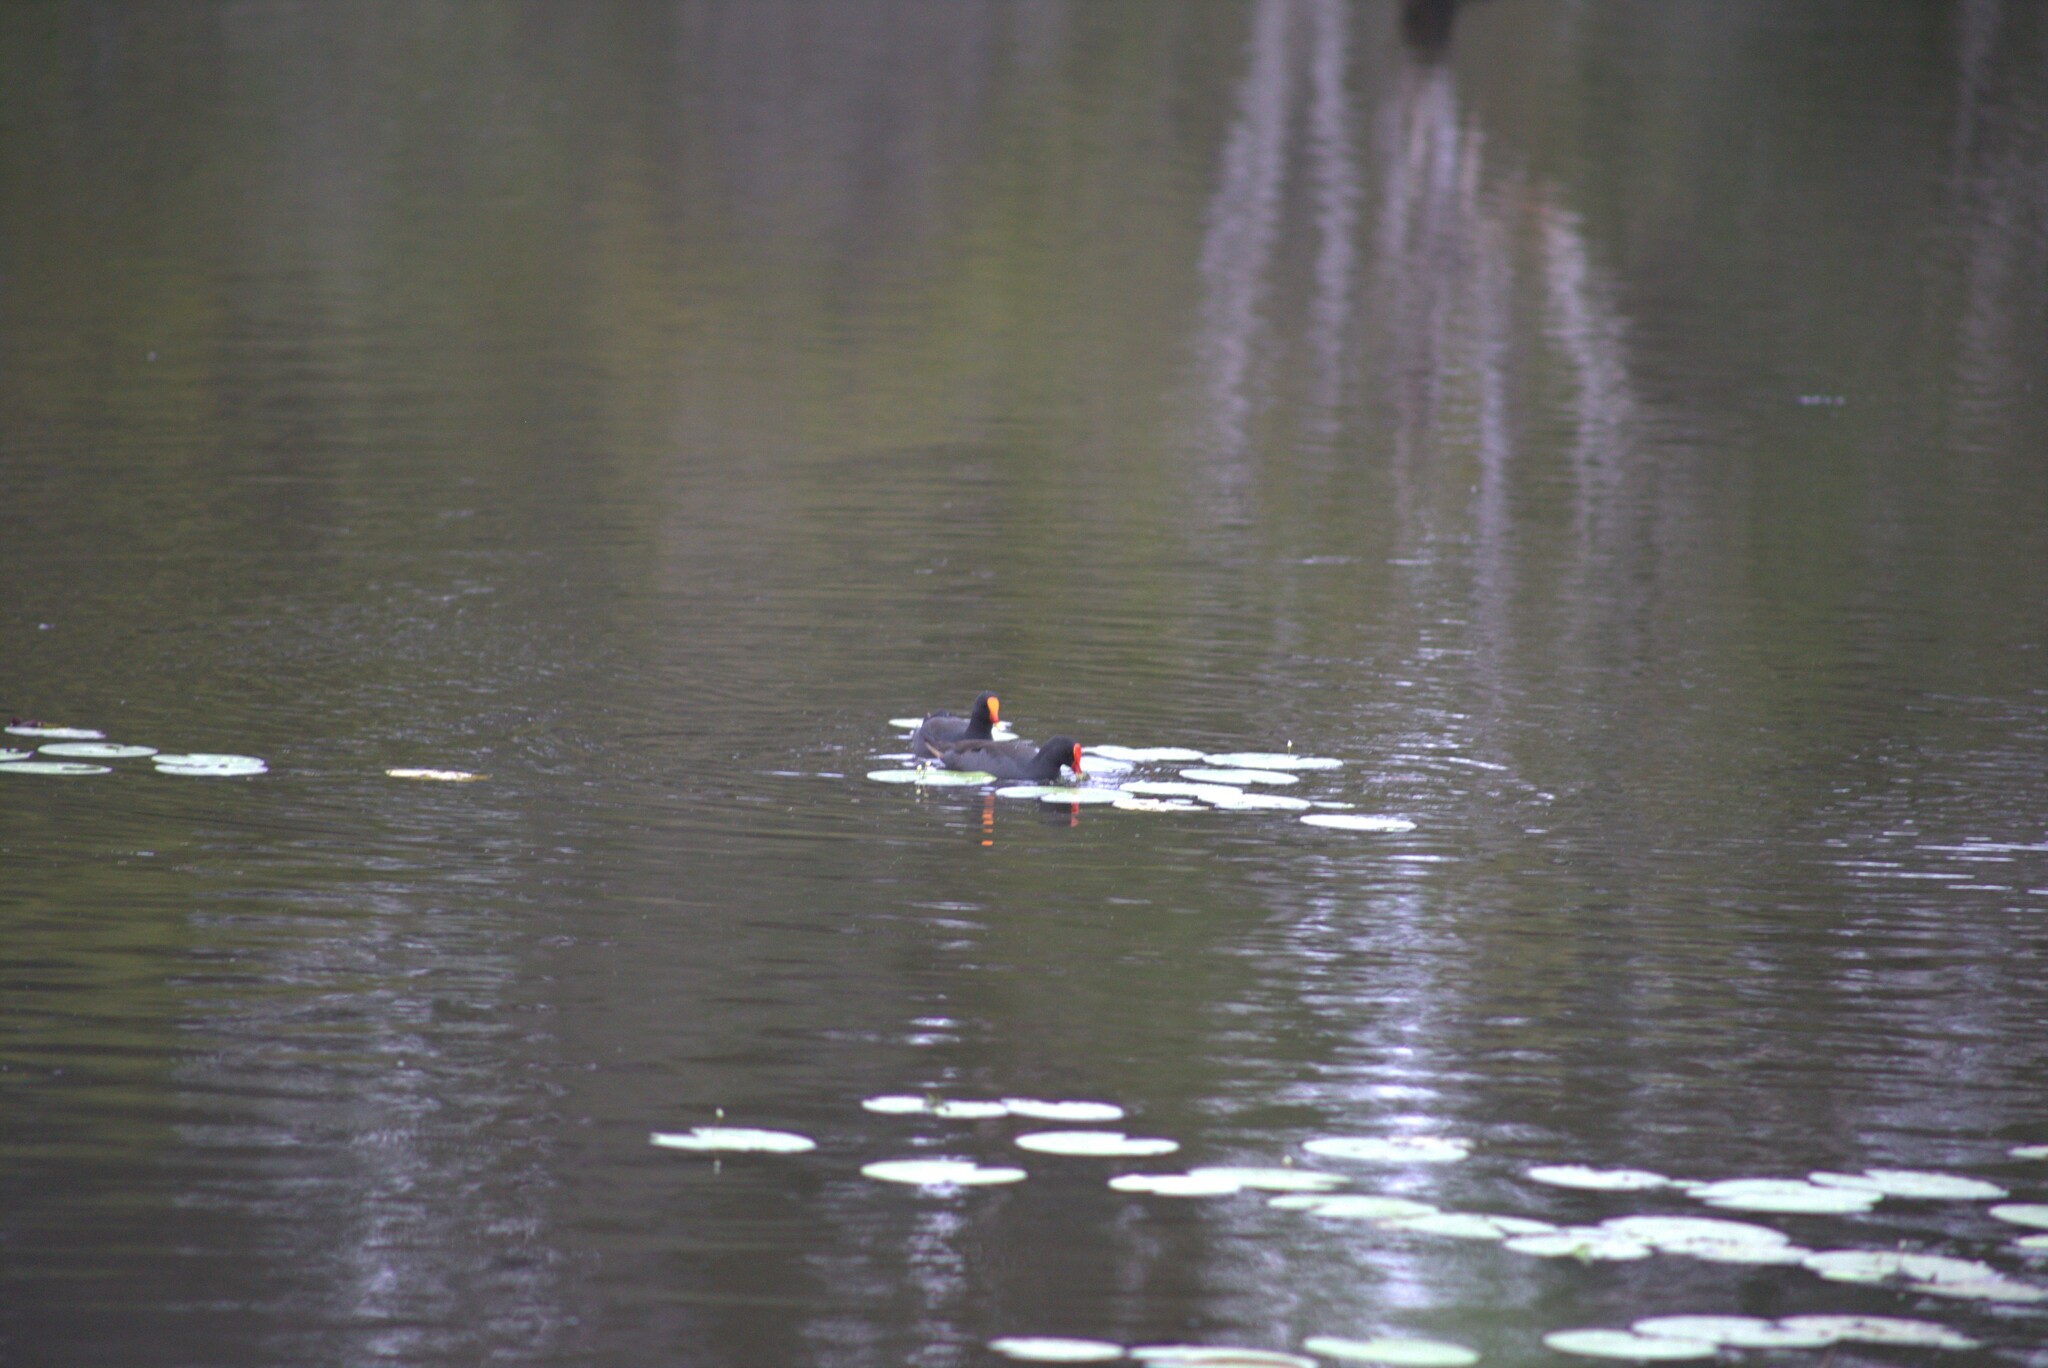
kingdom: Animalia
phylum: Chordata
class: Aves
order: Gruiformes
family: Rallidae
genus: Gallinula
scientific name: Gallinula tenebrosa
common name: Dusky moorhen
